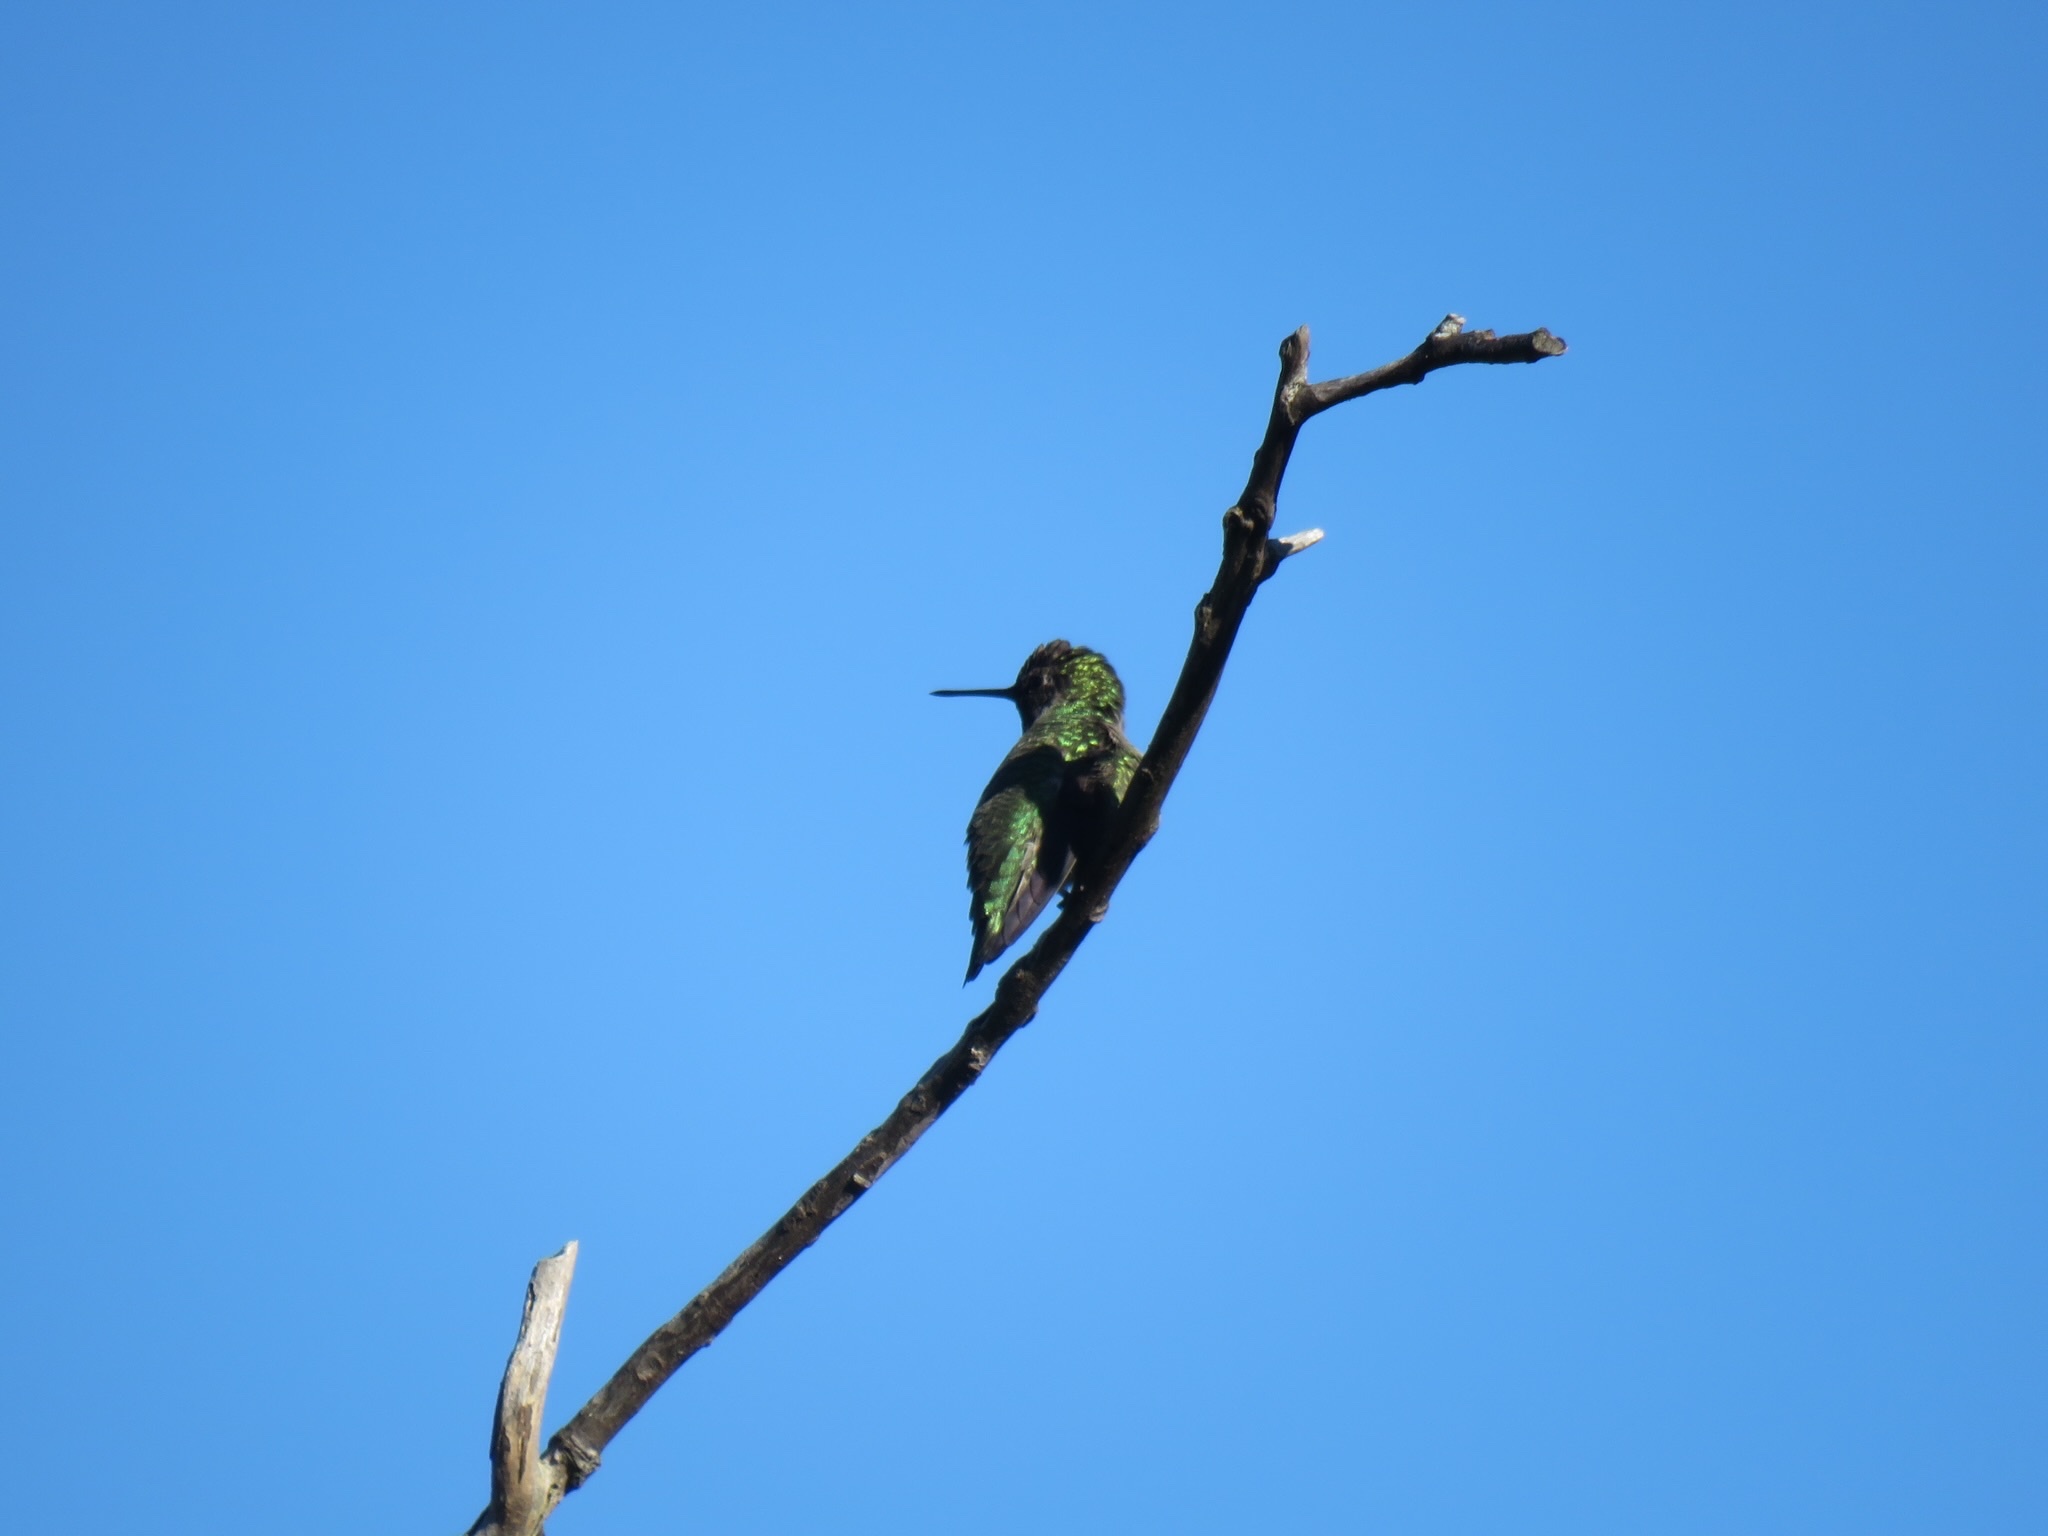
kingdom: Animalia
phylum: Chordata
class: Aves
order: Apodiformes
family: Trochilidae
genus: Calypte
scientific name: Calypte anna
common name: Anna's hummingbird
